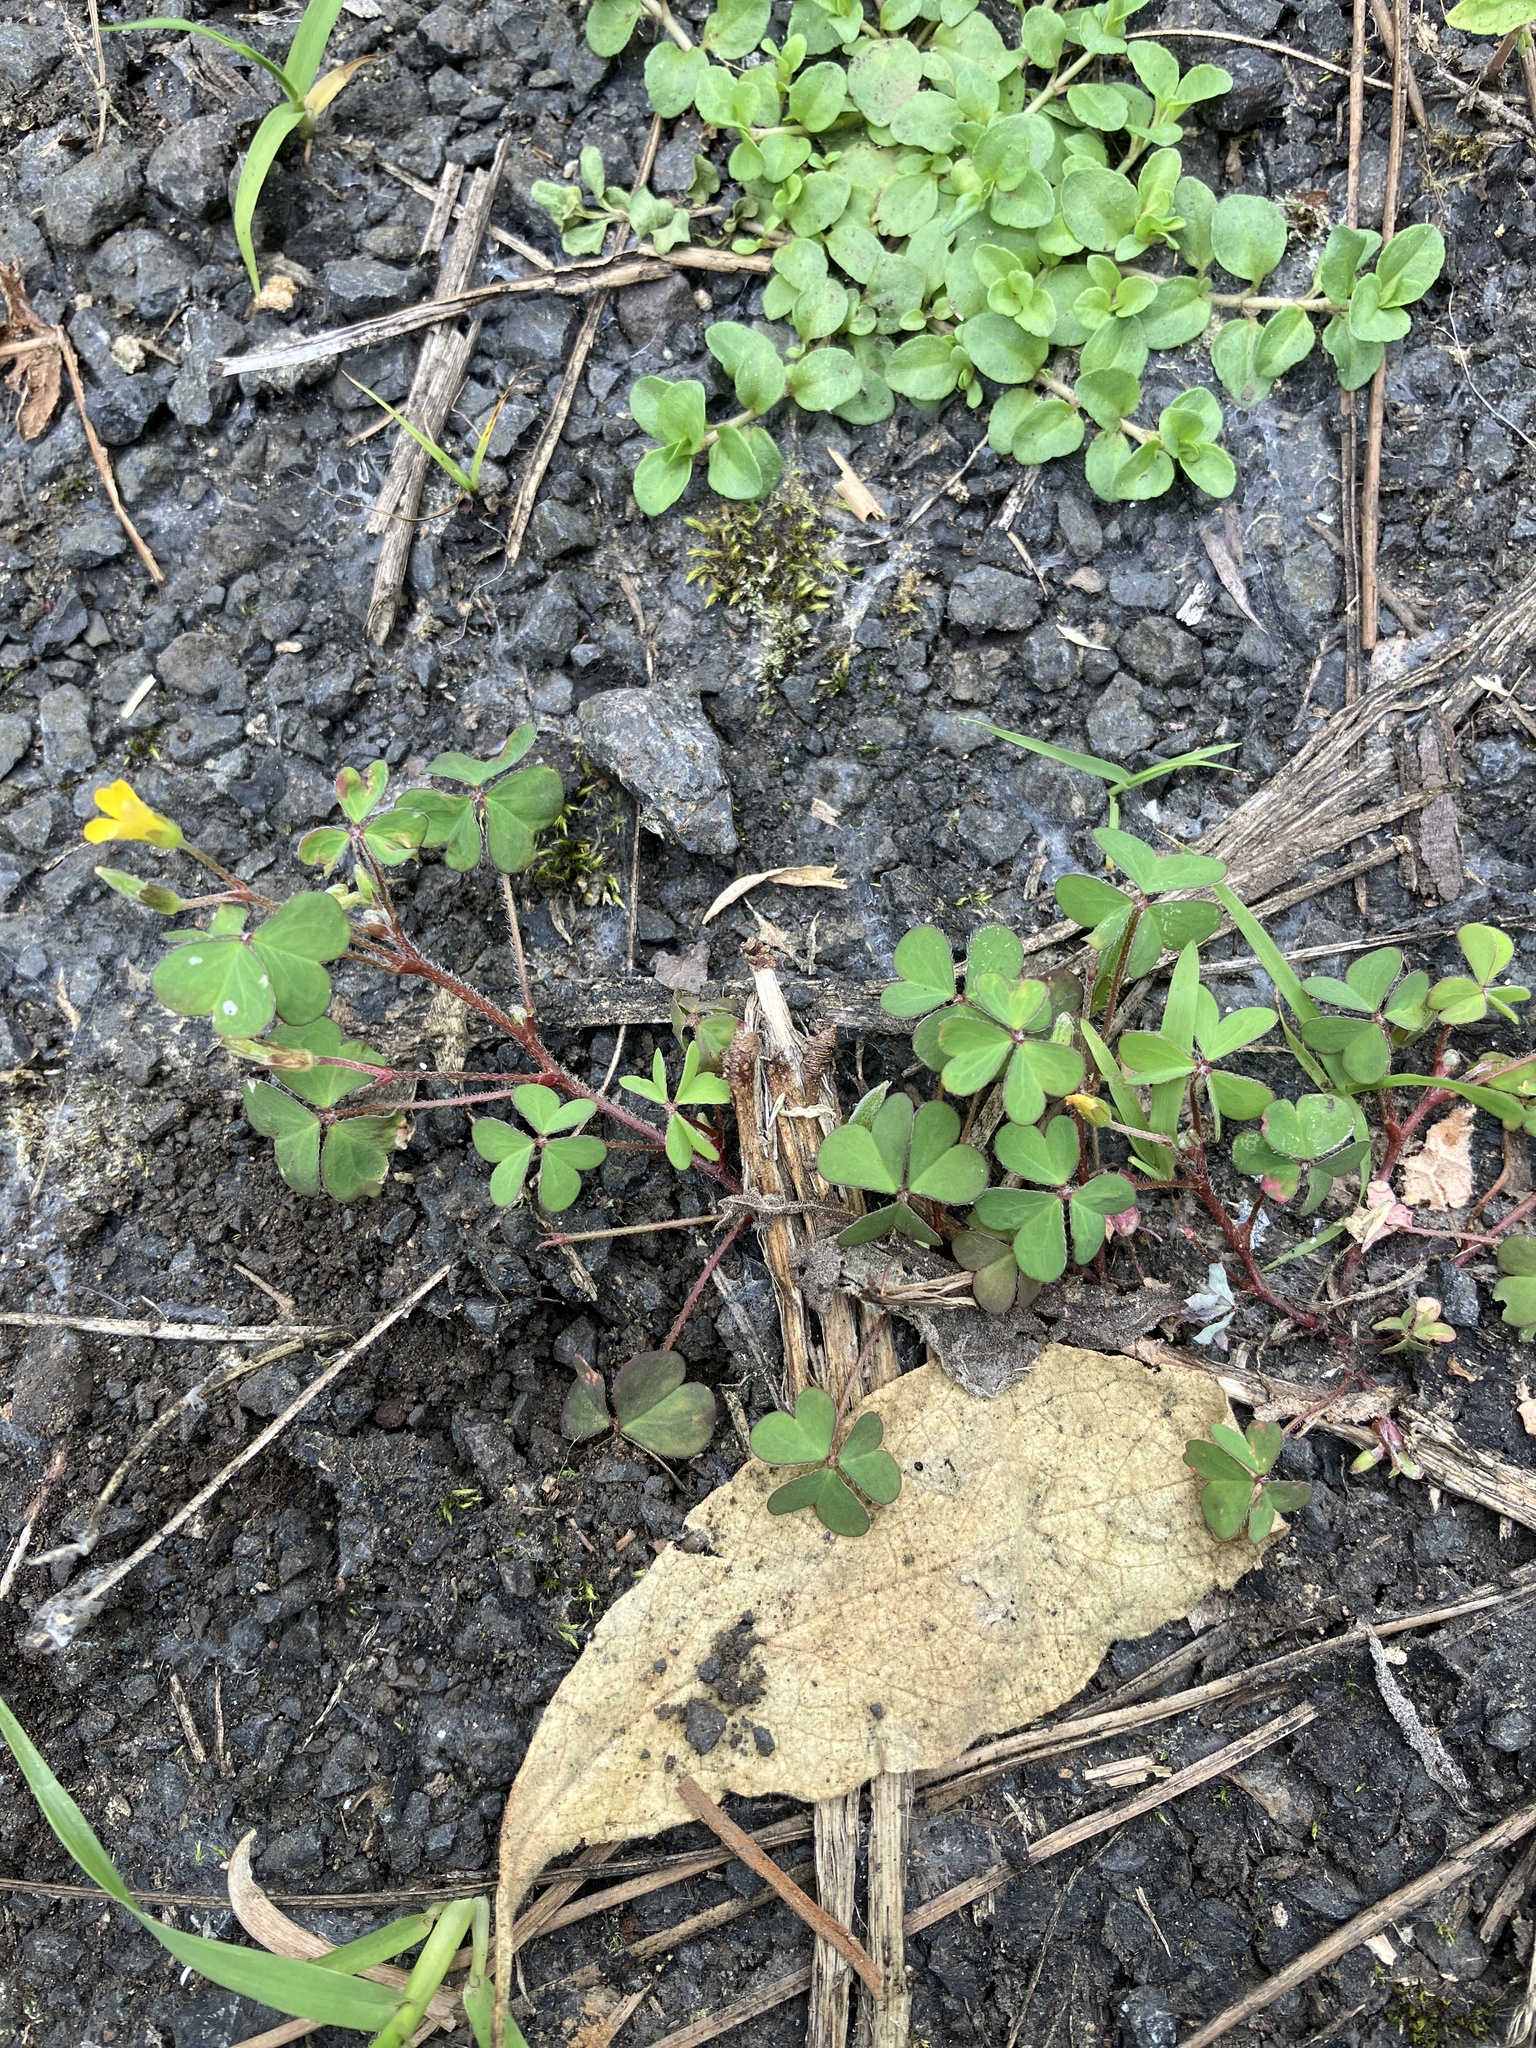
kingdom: Plantae
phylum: Tracheophyta
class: Magnoliopsida
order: Oxalidales
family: Oxalidaceae
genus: Oxalis
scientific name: Oxalis corniculata
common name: Procumbent yellow-sorrel
